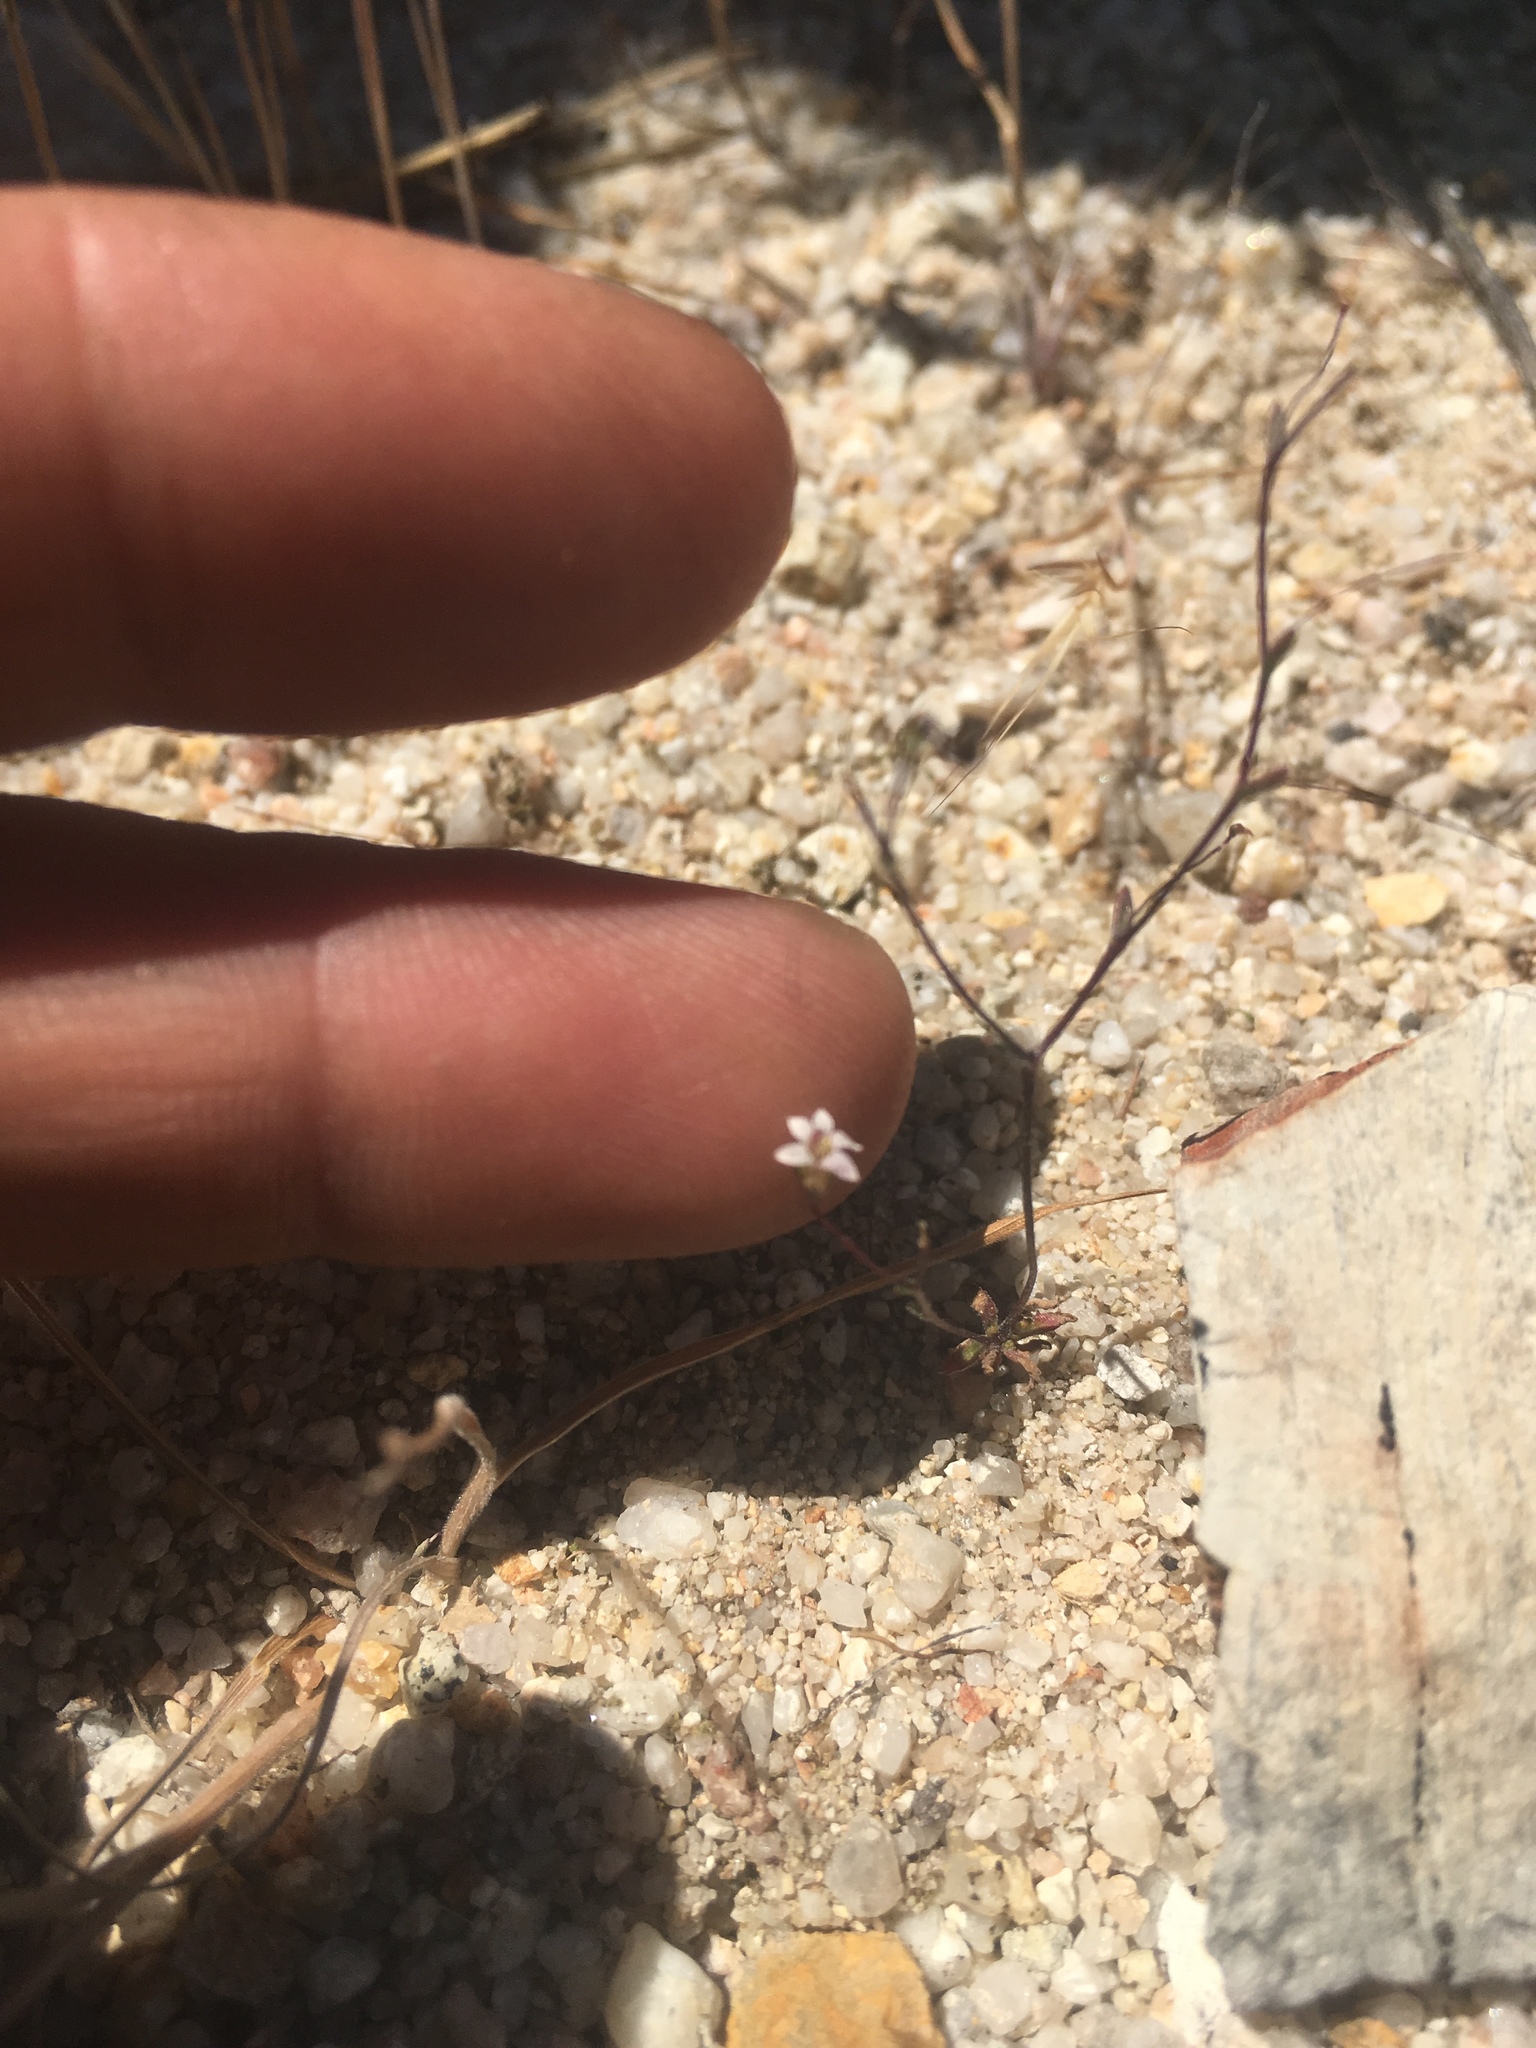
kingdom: Plantae
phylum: Tracheophyta
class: Magnoliopsida
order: Asterales
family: Campanulaceae
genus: Nemacladus
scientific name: Nemacladus secundiflorus
